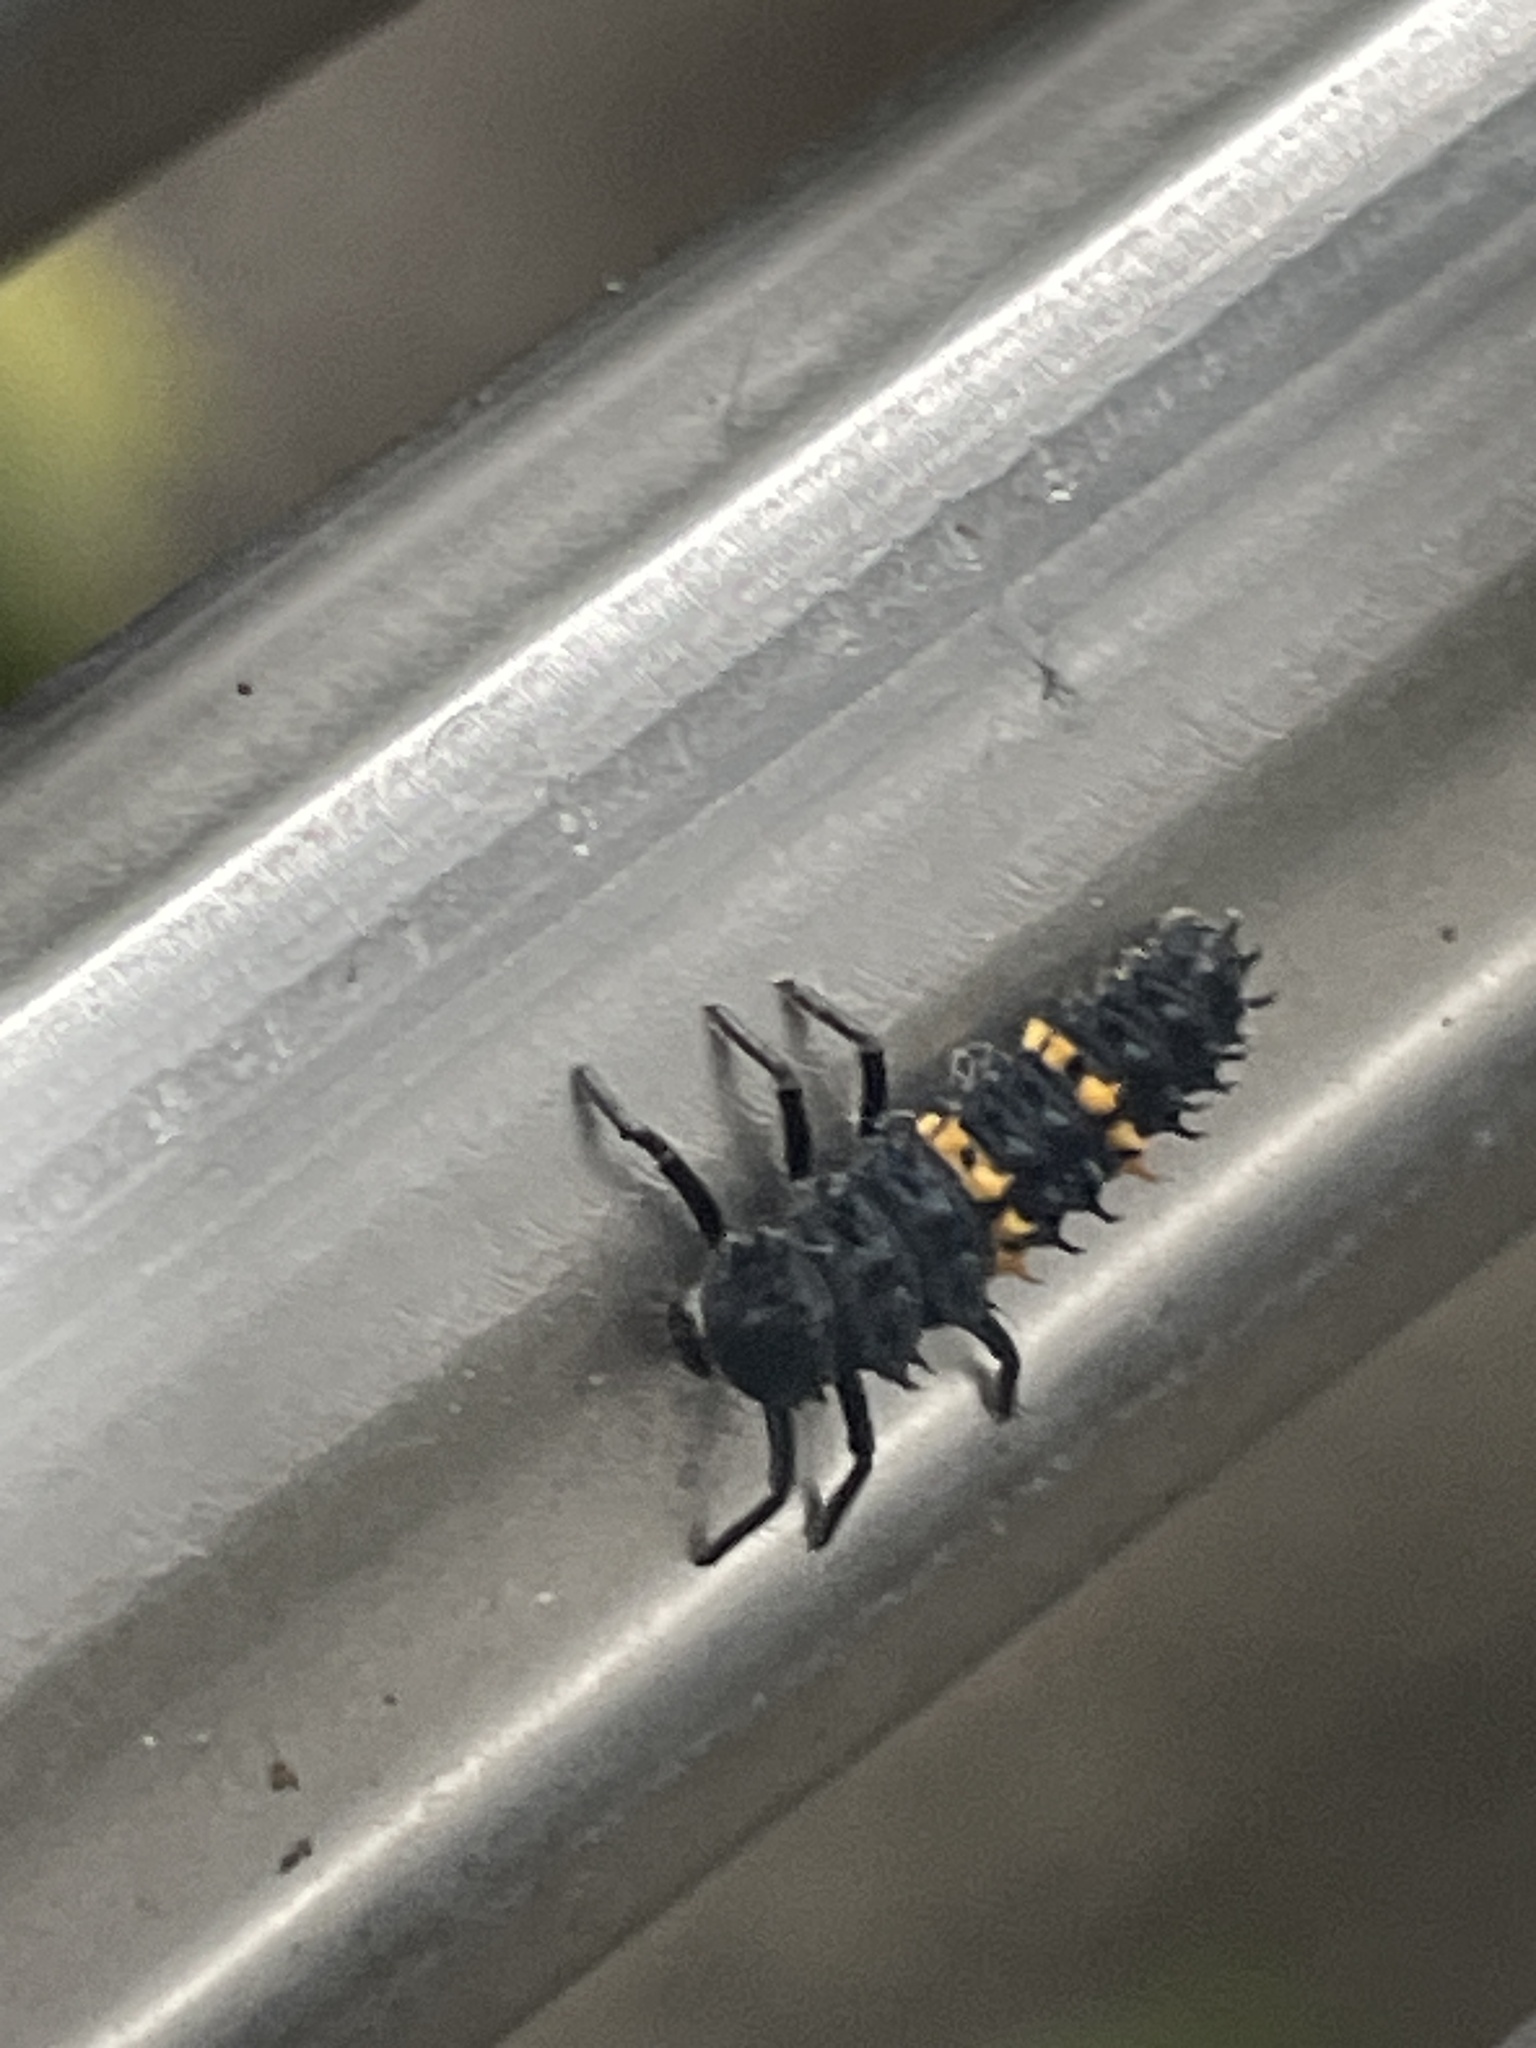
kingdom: Animalia
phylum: Arthropoda
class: Insecta
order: Coleoptera
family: Coccinellidae
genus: Harmonia
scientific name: Harmonia conformis
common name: Common spotted ladybird beetle
